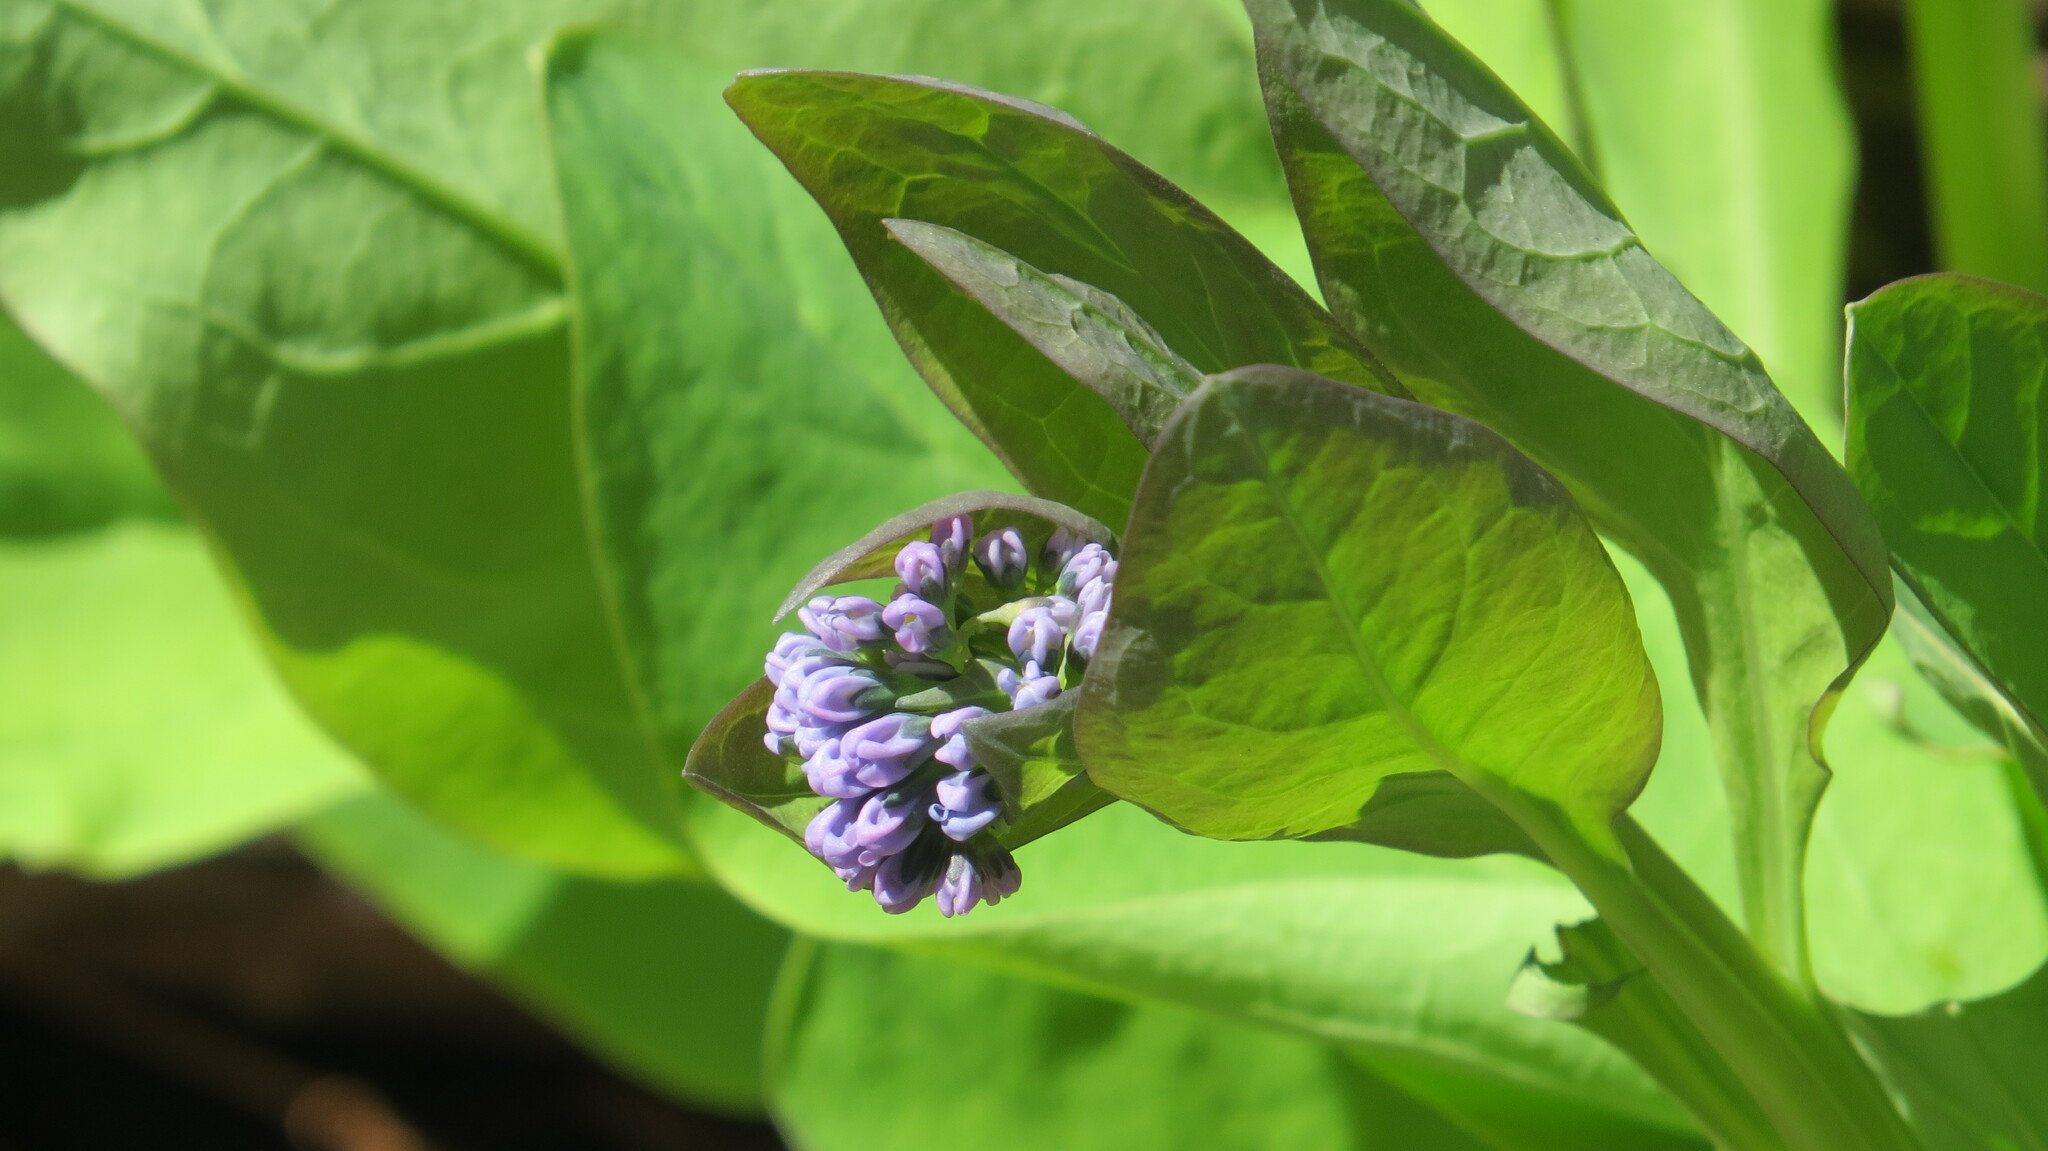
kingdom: Plantae
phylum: Tracheophyta
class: Magnoliopsida
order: Boraginales
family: Boraginaceae
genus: Mertensia
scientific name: Mertensia virginica
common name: Virginia bluebells
